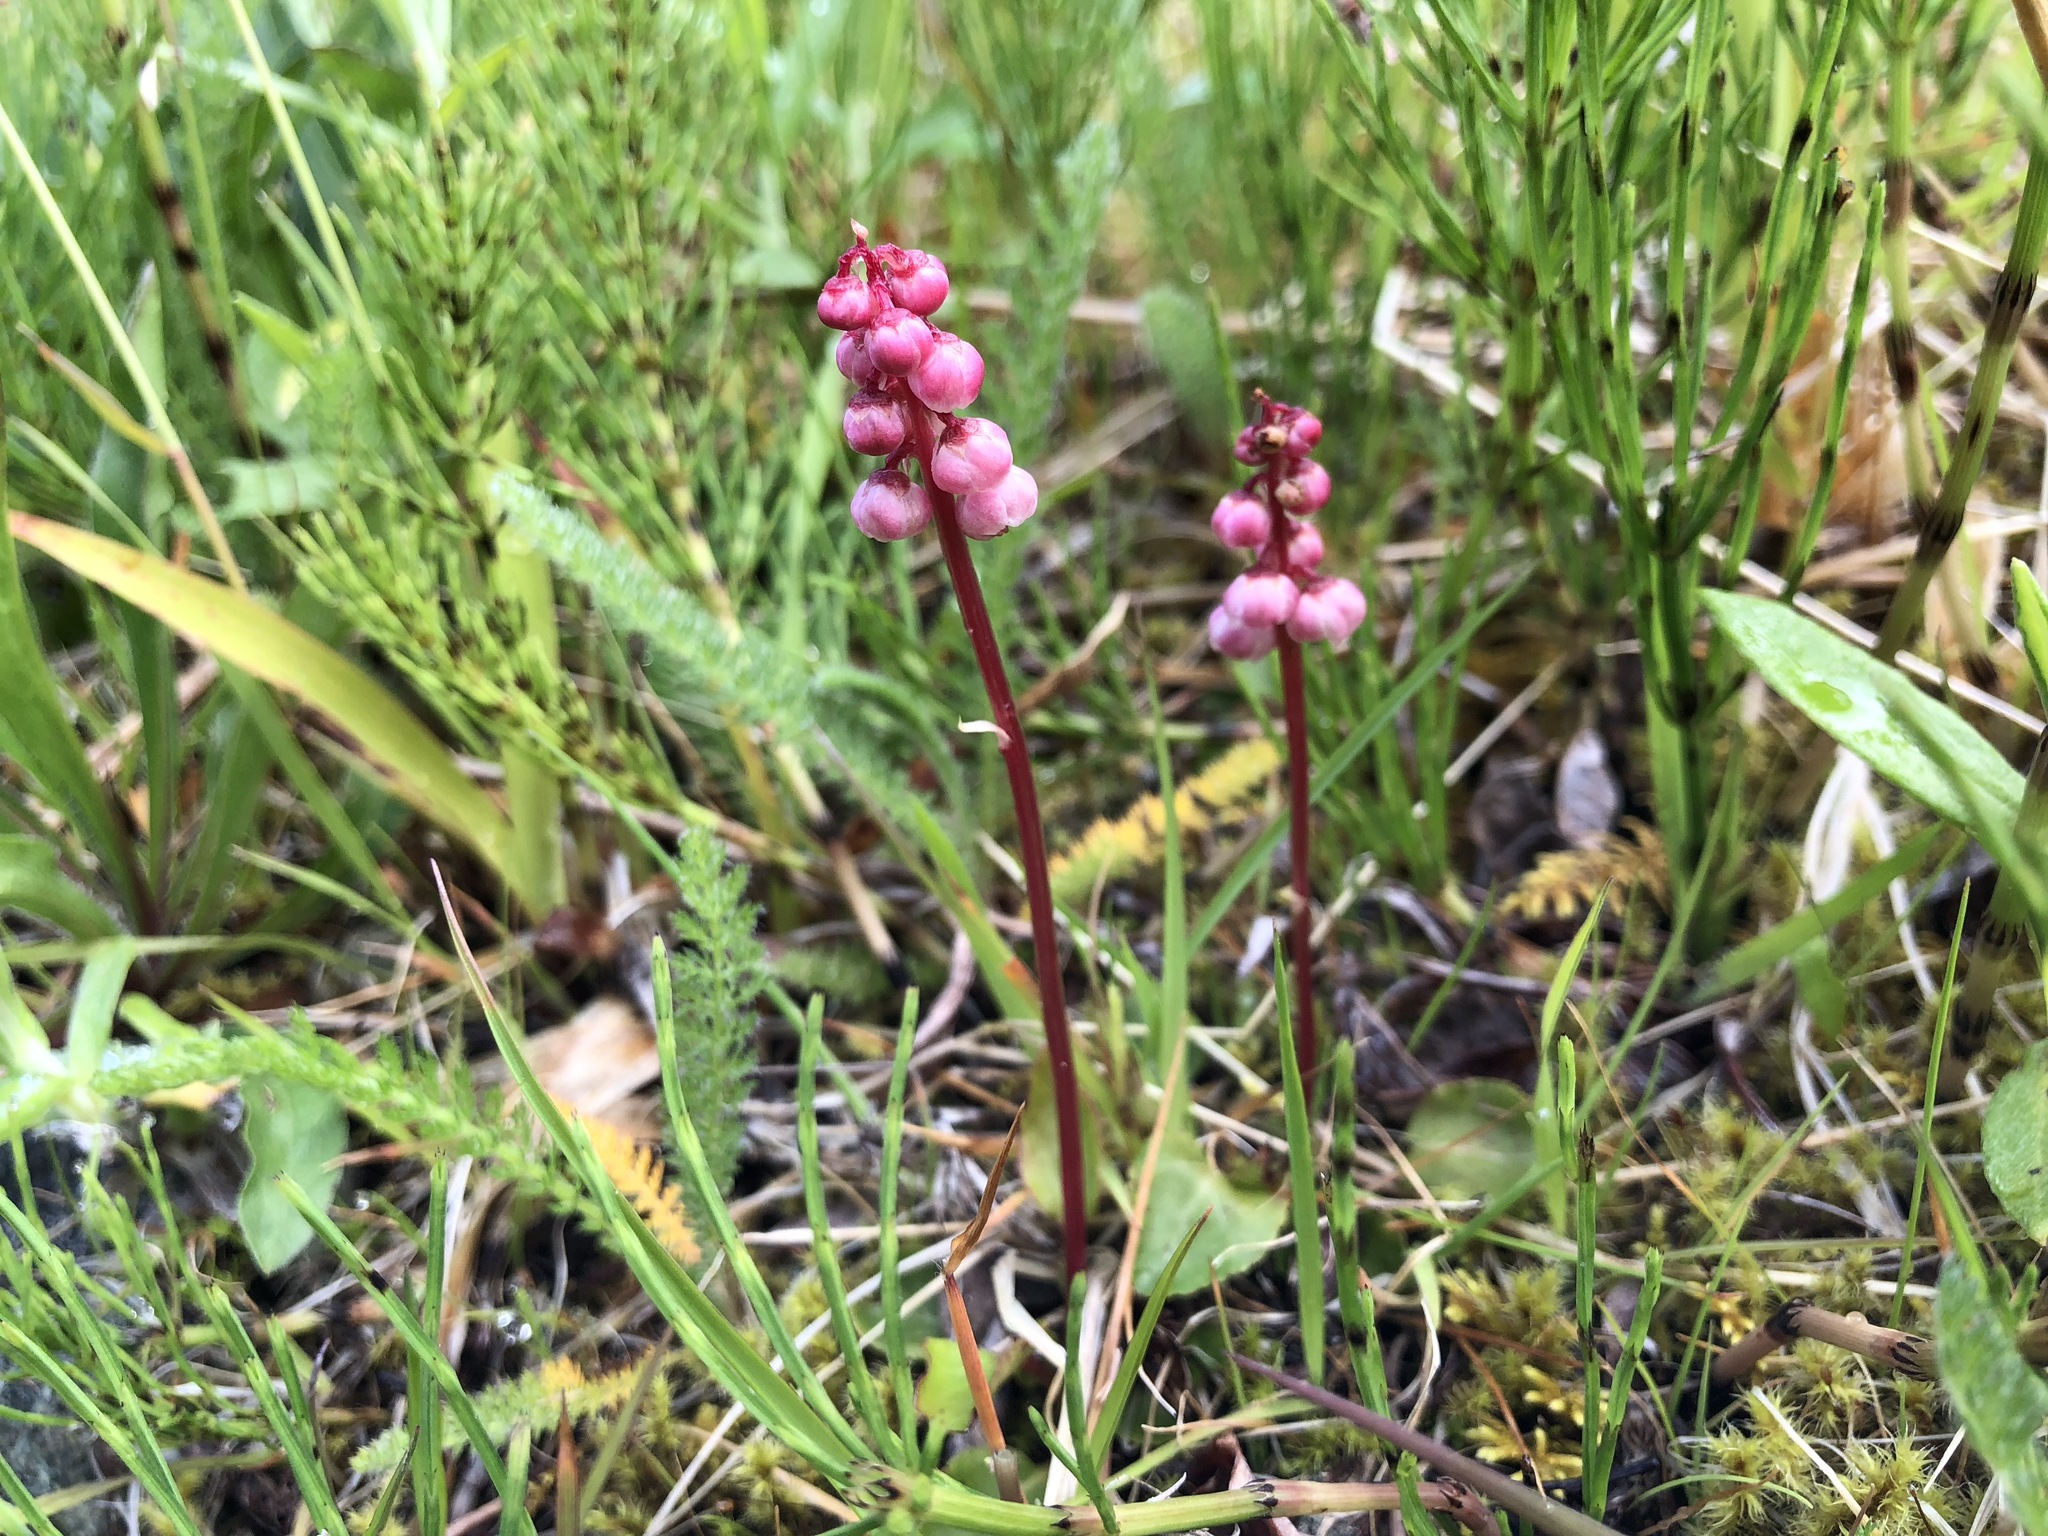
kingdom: Plantae
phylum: Tracheophyta
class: Magnoliopsida
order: Ericales
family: Ericaceae
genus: Pyrola
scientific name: Pyrola minor
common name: Common wintergreen
